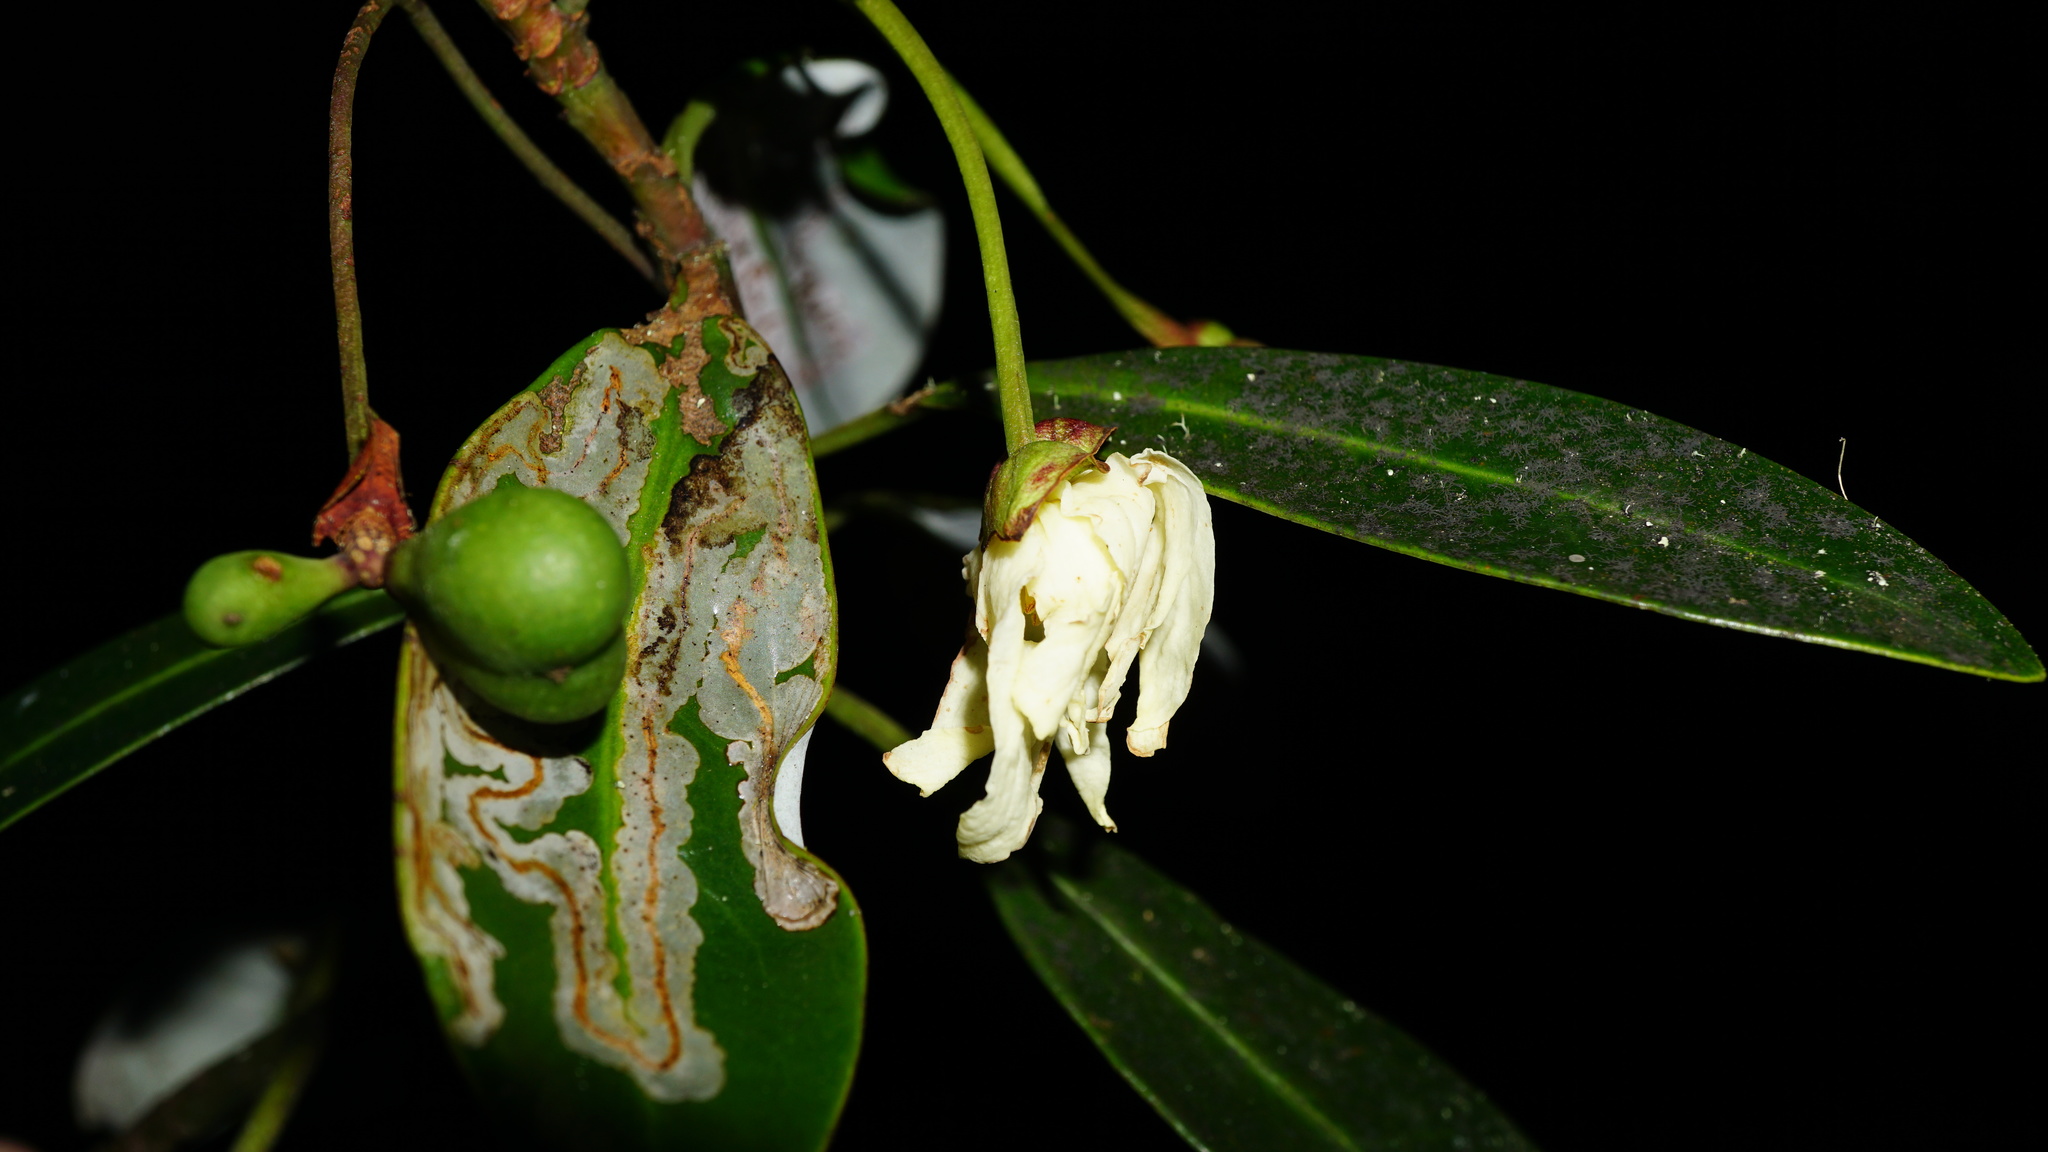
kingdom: Plantae
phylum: Tracheophyta
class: Magnoliopsida
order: Canellales
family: Winteraceae
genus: Drimys
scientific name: Drimys granadensis
